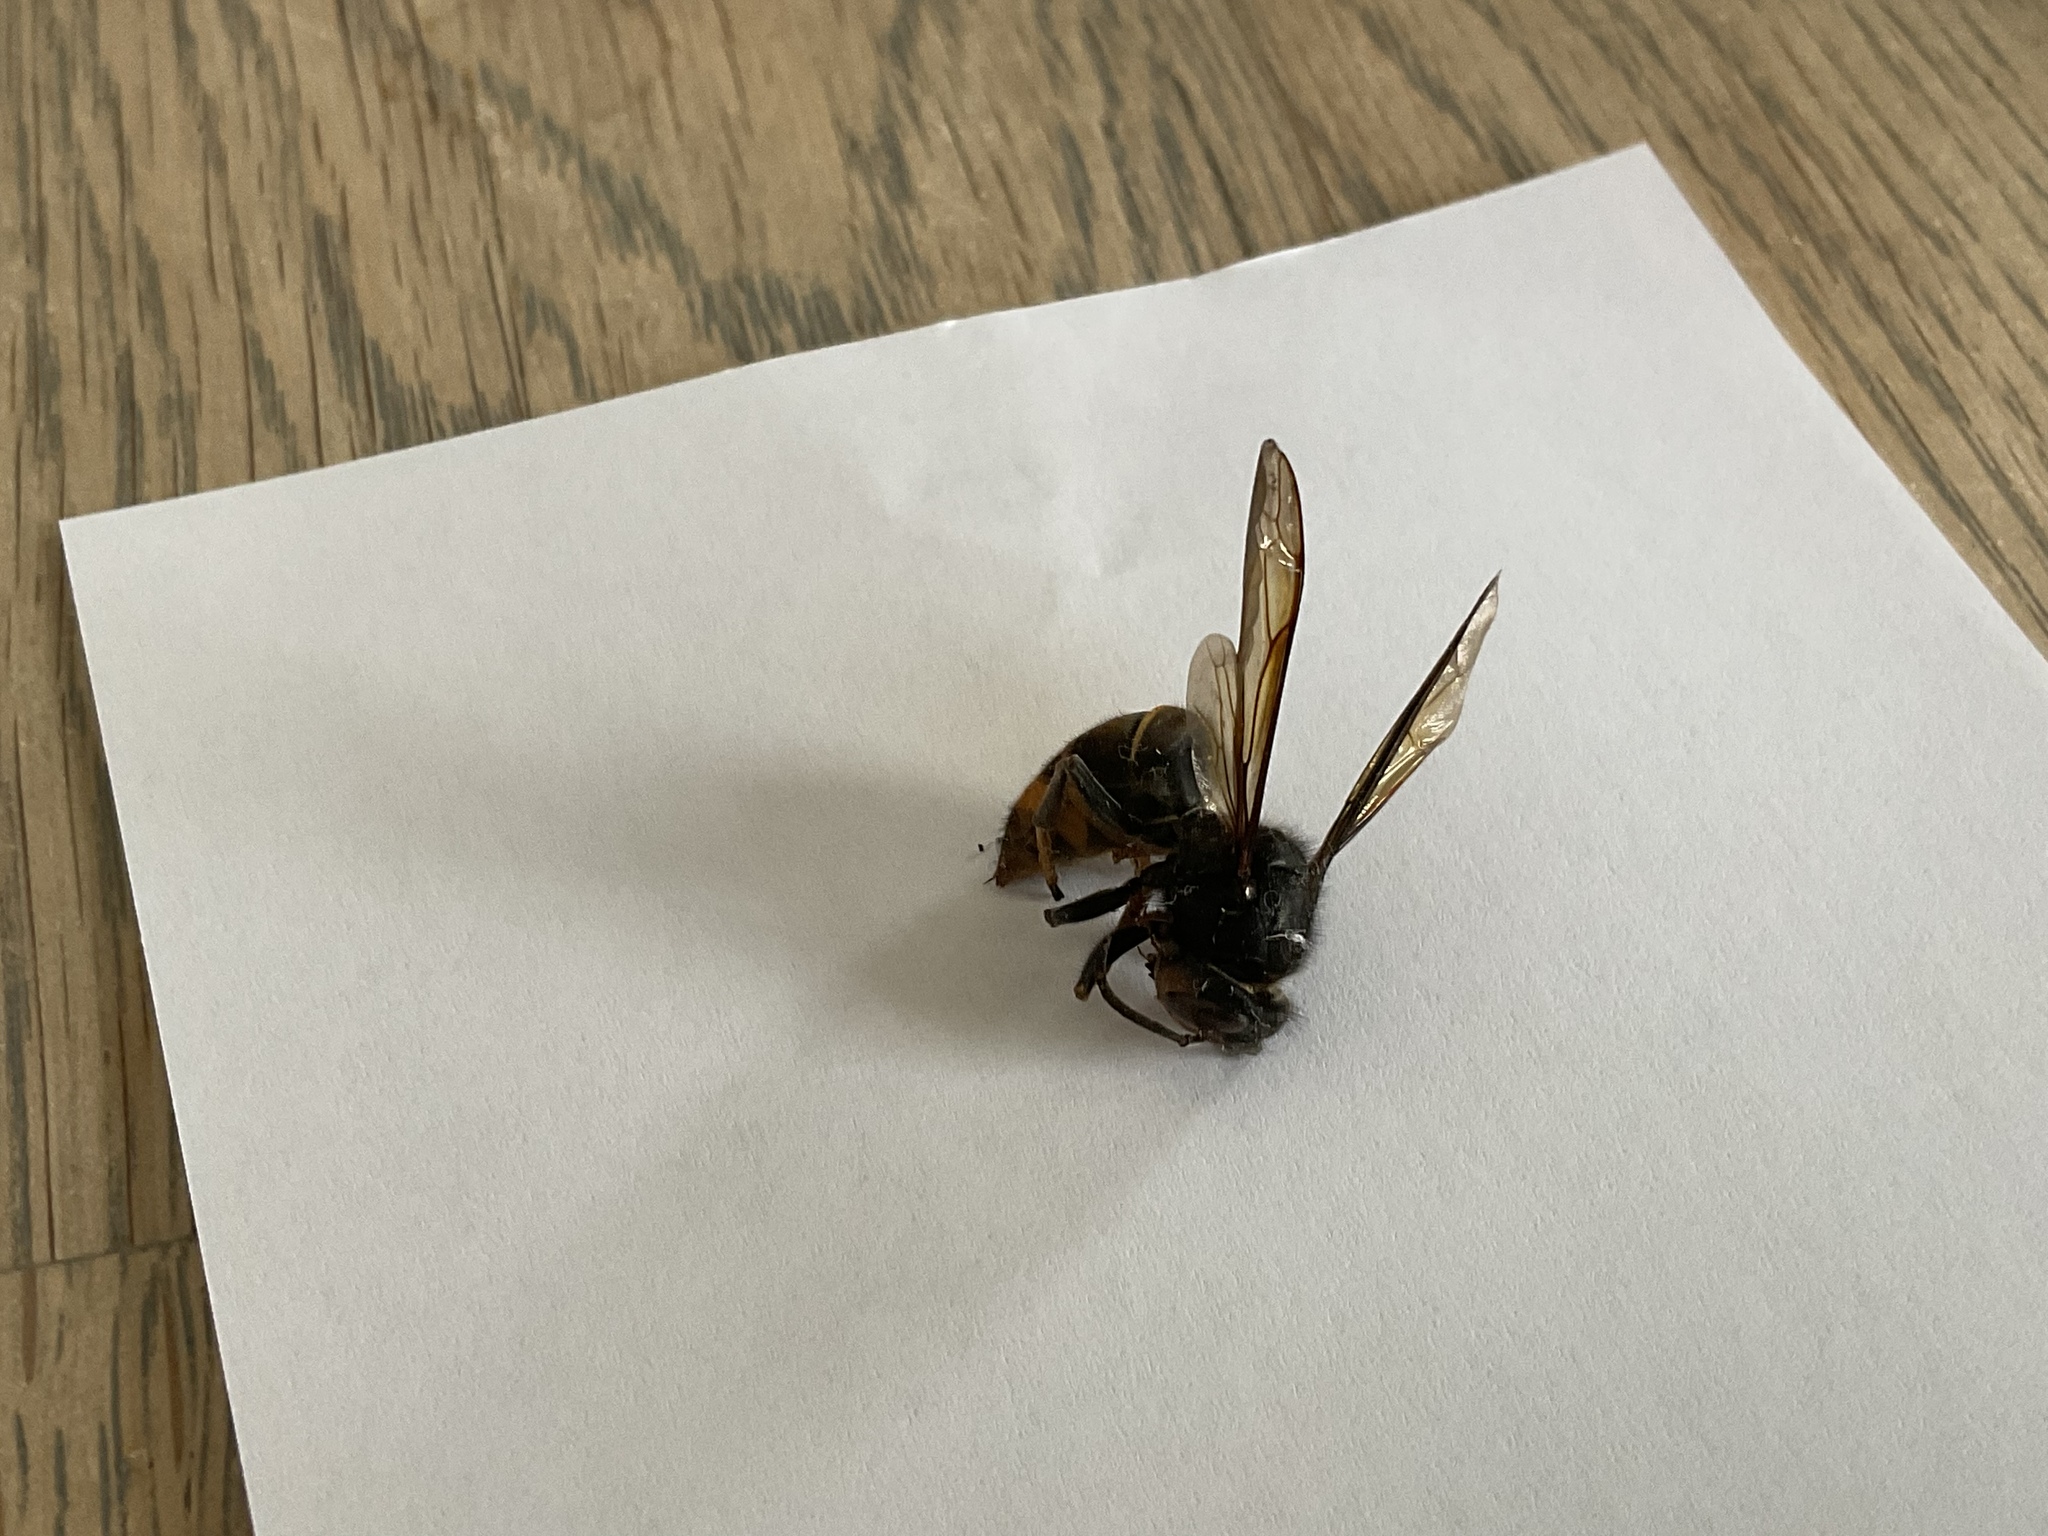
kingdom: Animalia
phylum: Arthropoda
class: Insecta
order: Hymenoptera
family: Vespidae
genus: Vespa
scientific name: Vespa velutina
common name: Asian hornet
